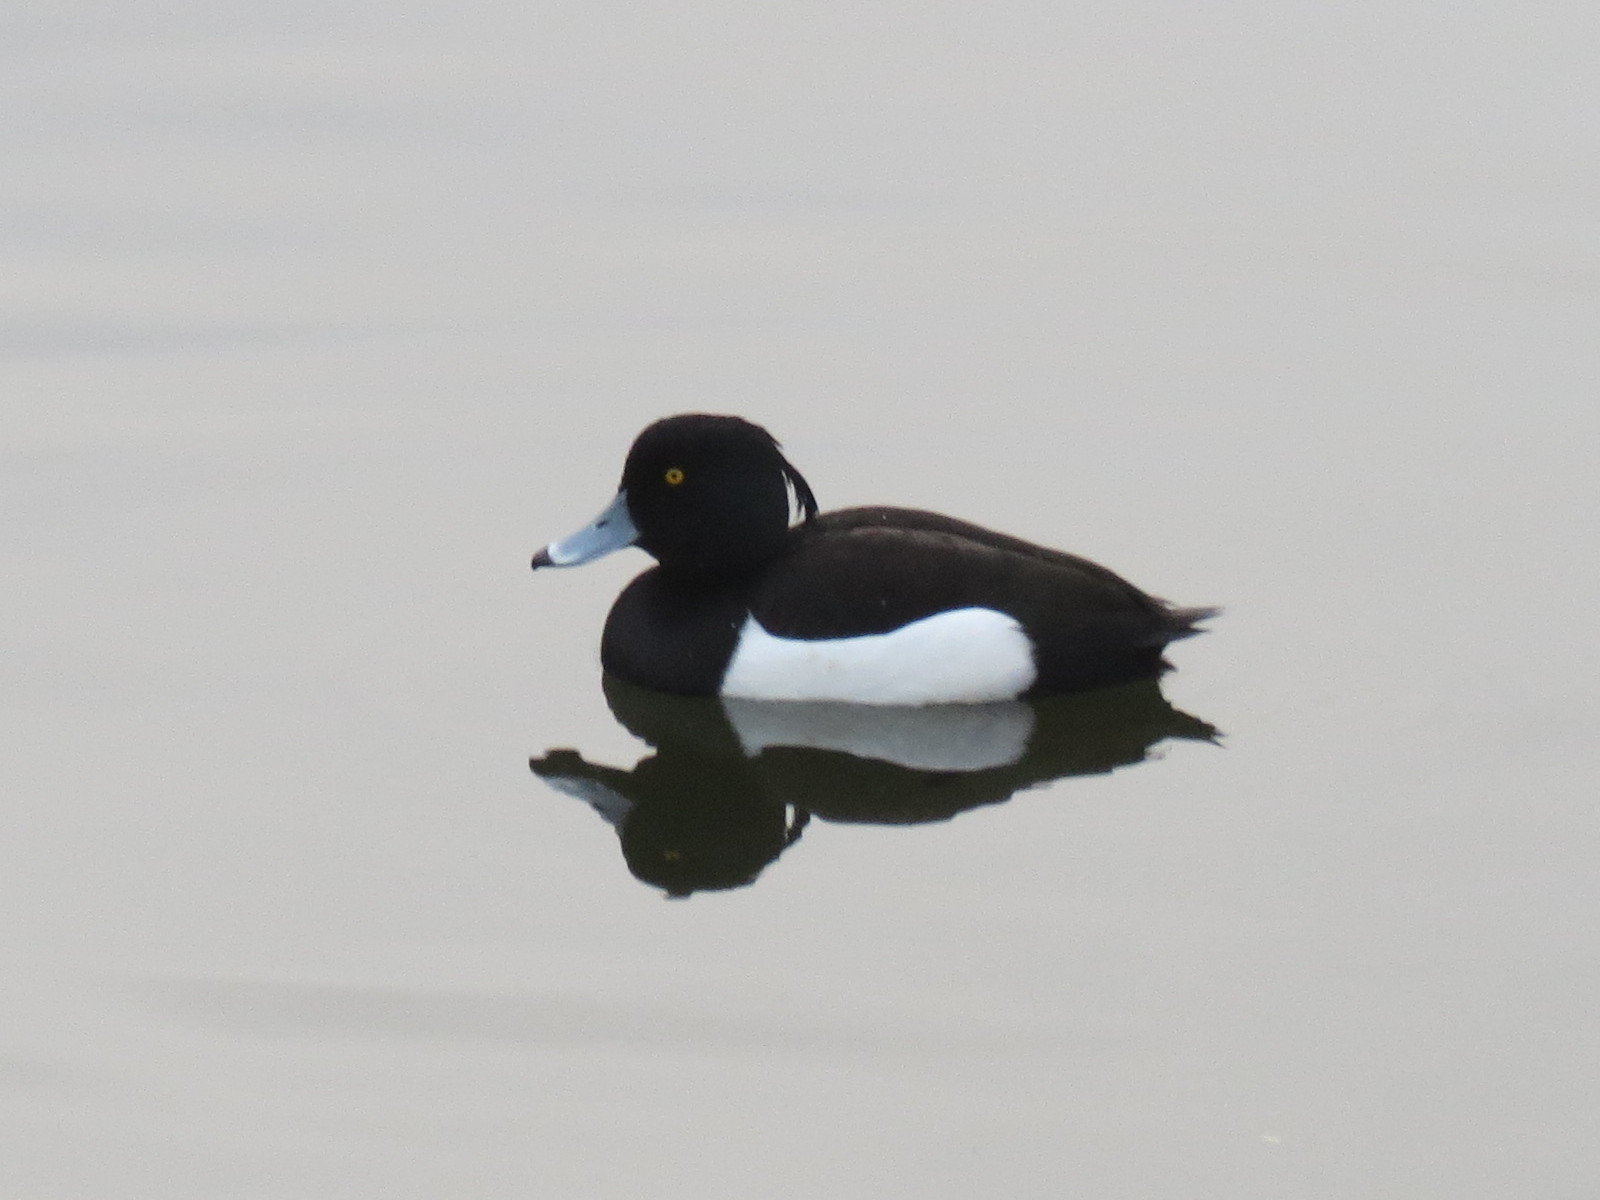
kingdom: Animalia
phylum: Chordata
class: Aves
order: Anseriformes
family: Anatidae
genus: Aythya
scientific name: Aythya fuligula
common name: Tufted duck
